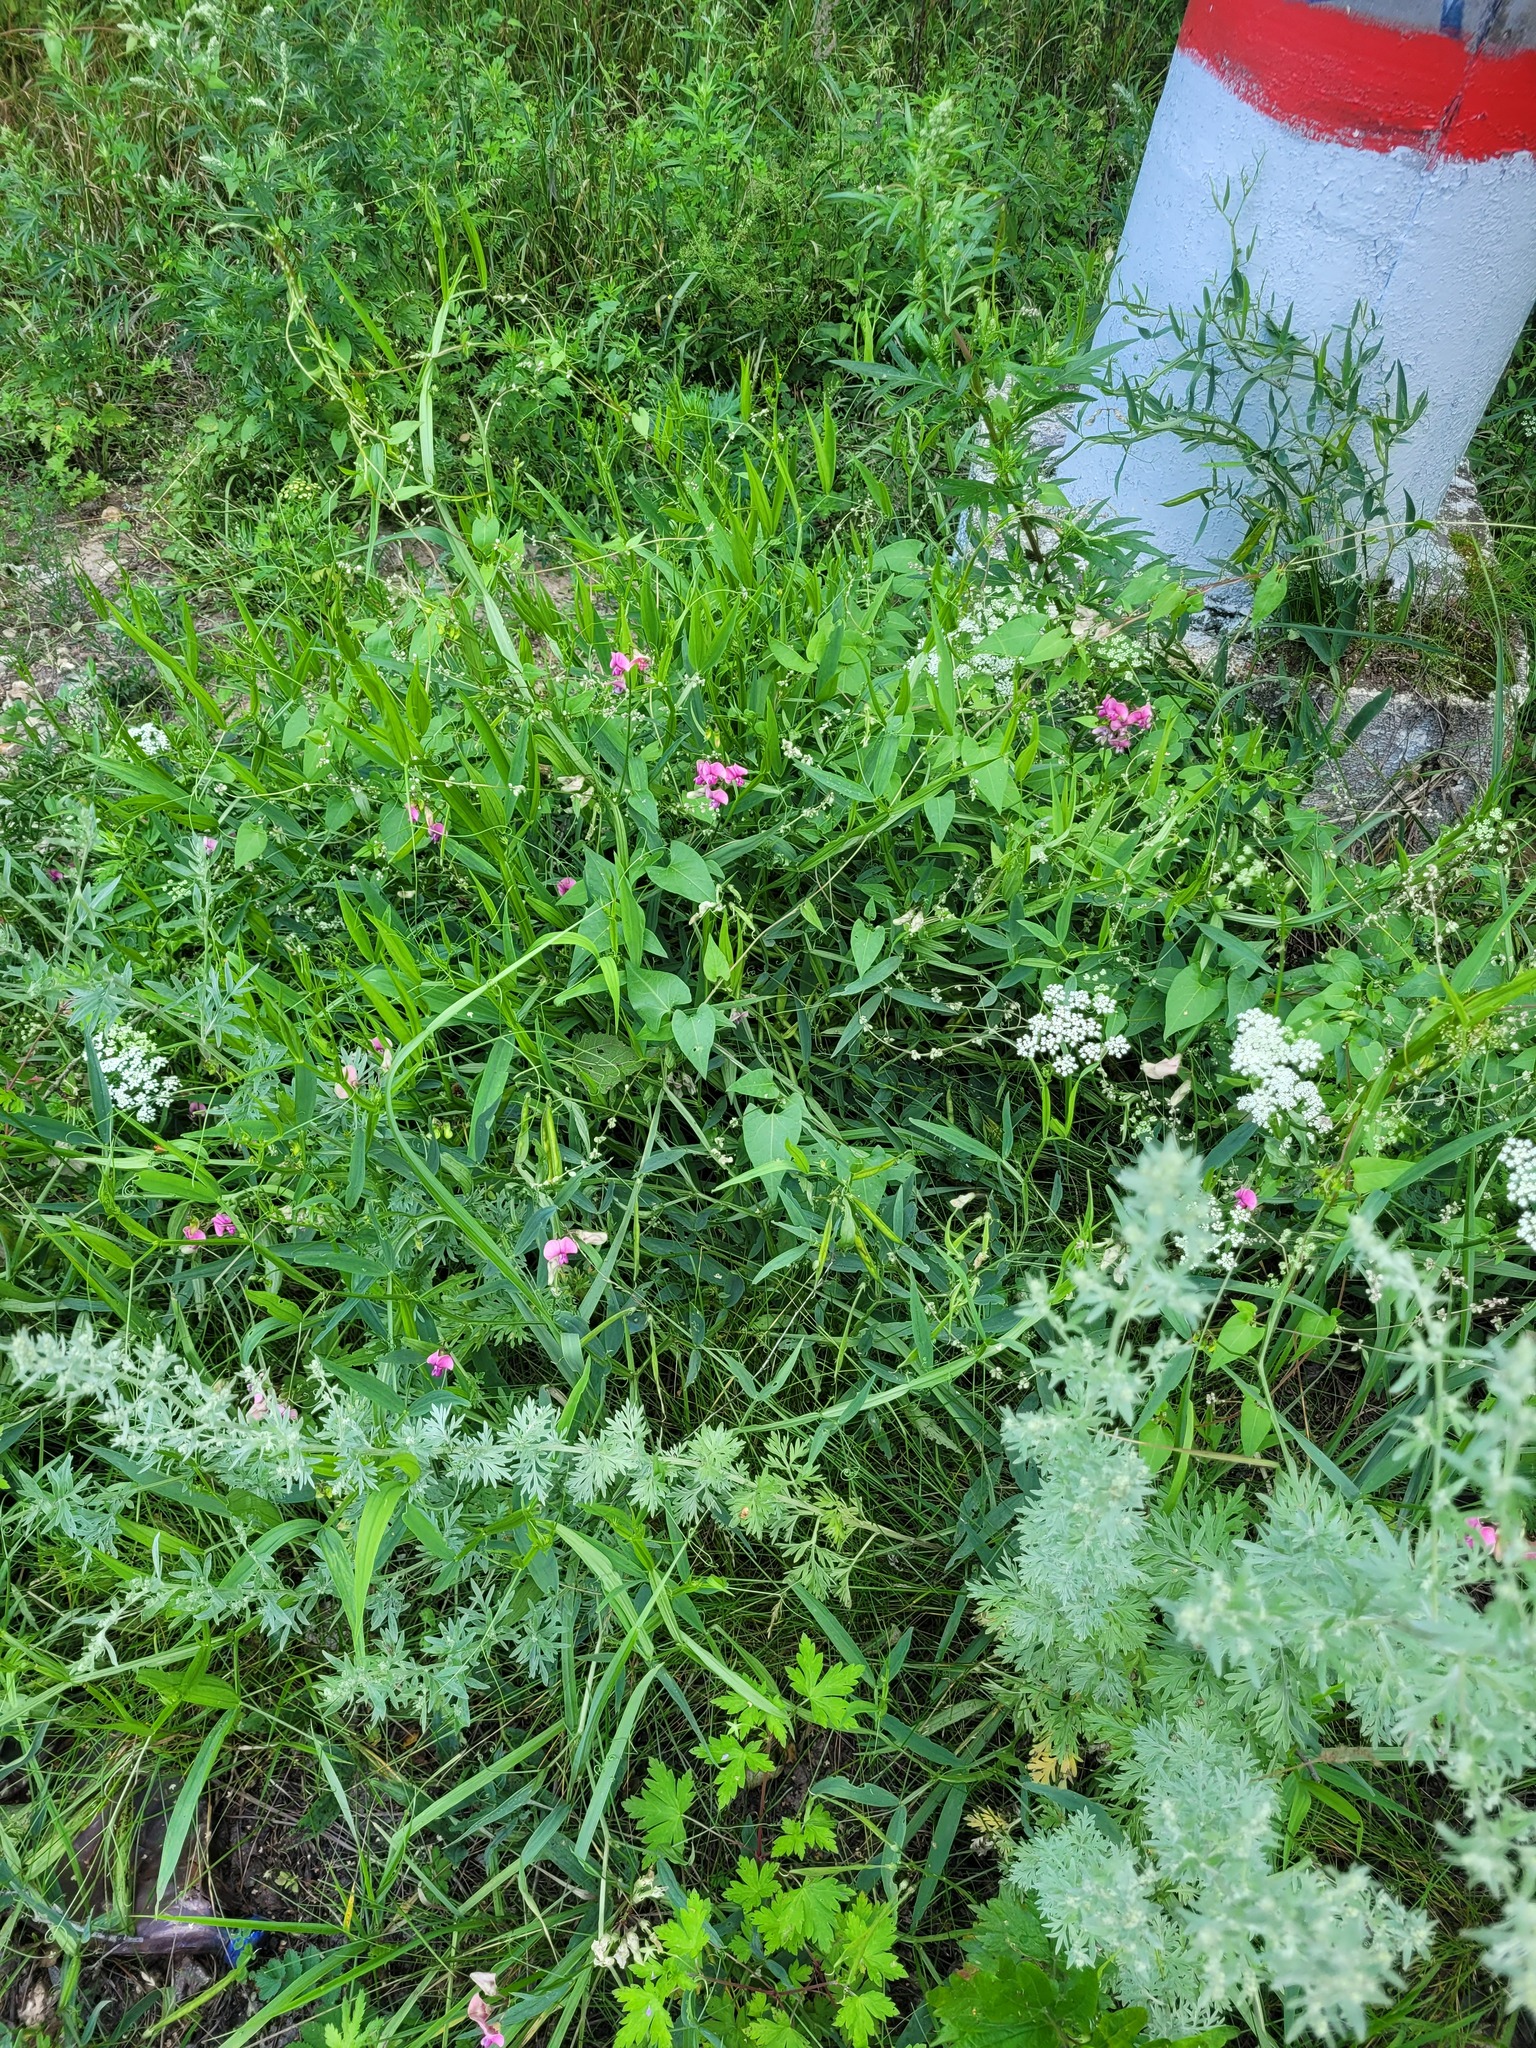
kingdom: Plantae
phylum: Tracheophyta
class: Magnoliopsida
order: Fabales
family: Fabaceae
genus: Lathyrus
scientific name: Lathyrus sylvestris
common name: Flat pea
